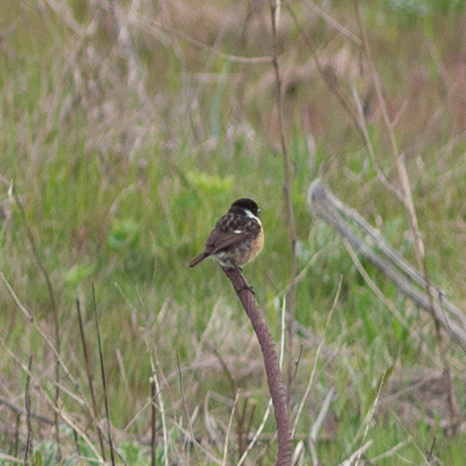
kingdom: Animalia
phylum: Chordata
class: Aves
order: Passeriformes
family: Muscicapidae
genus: Saxicola
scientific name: Saxicola rubicola
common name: European stonechat
